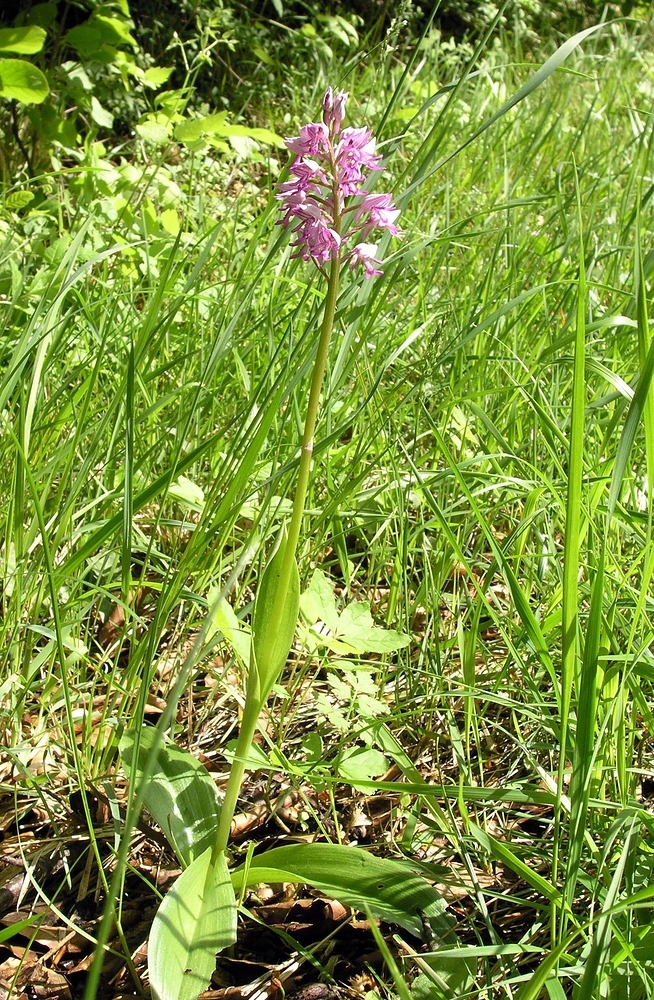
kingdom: Plantae
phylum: Tracheophyta
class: Liliopsida
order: Asparagales
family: Orchidaceae
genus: Orchis
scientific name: Orchis militaris
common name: Military orchid
